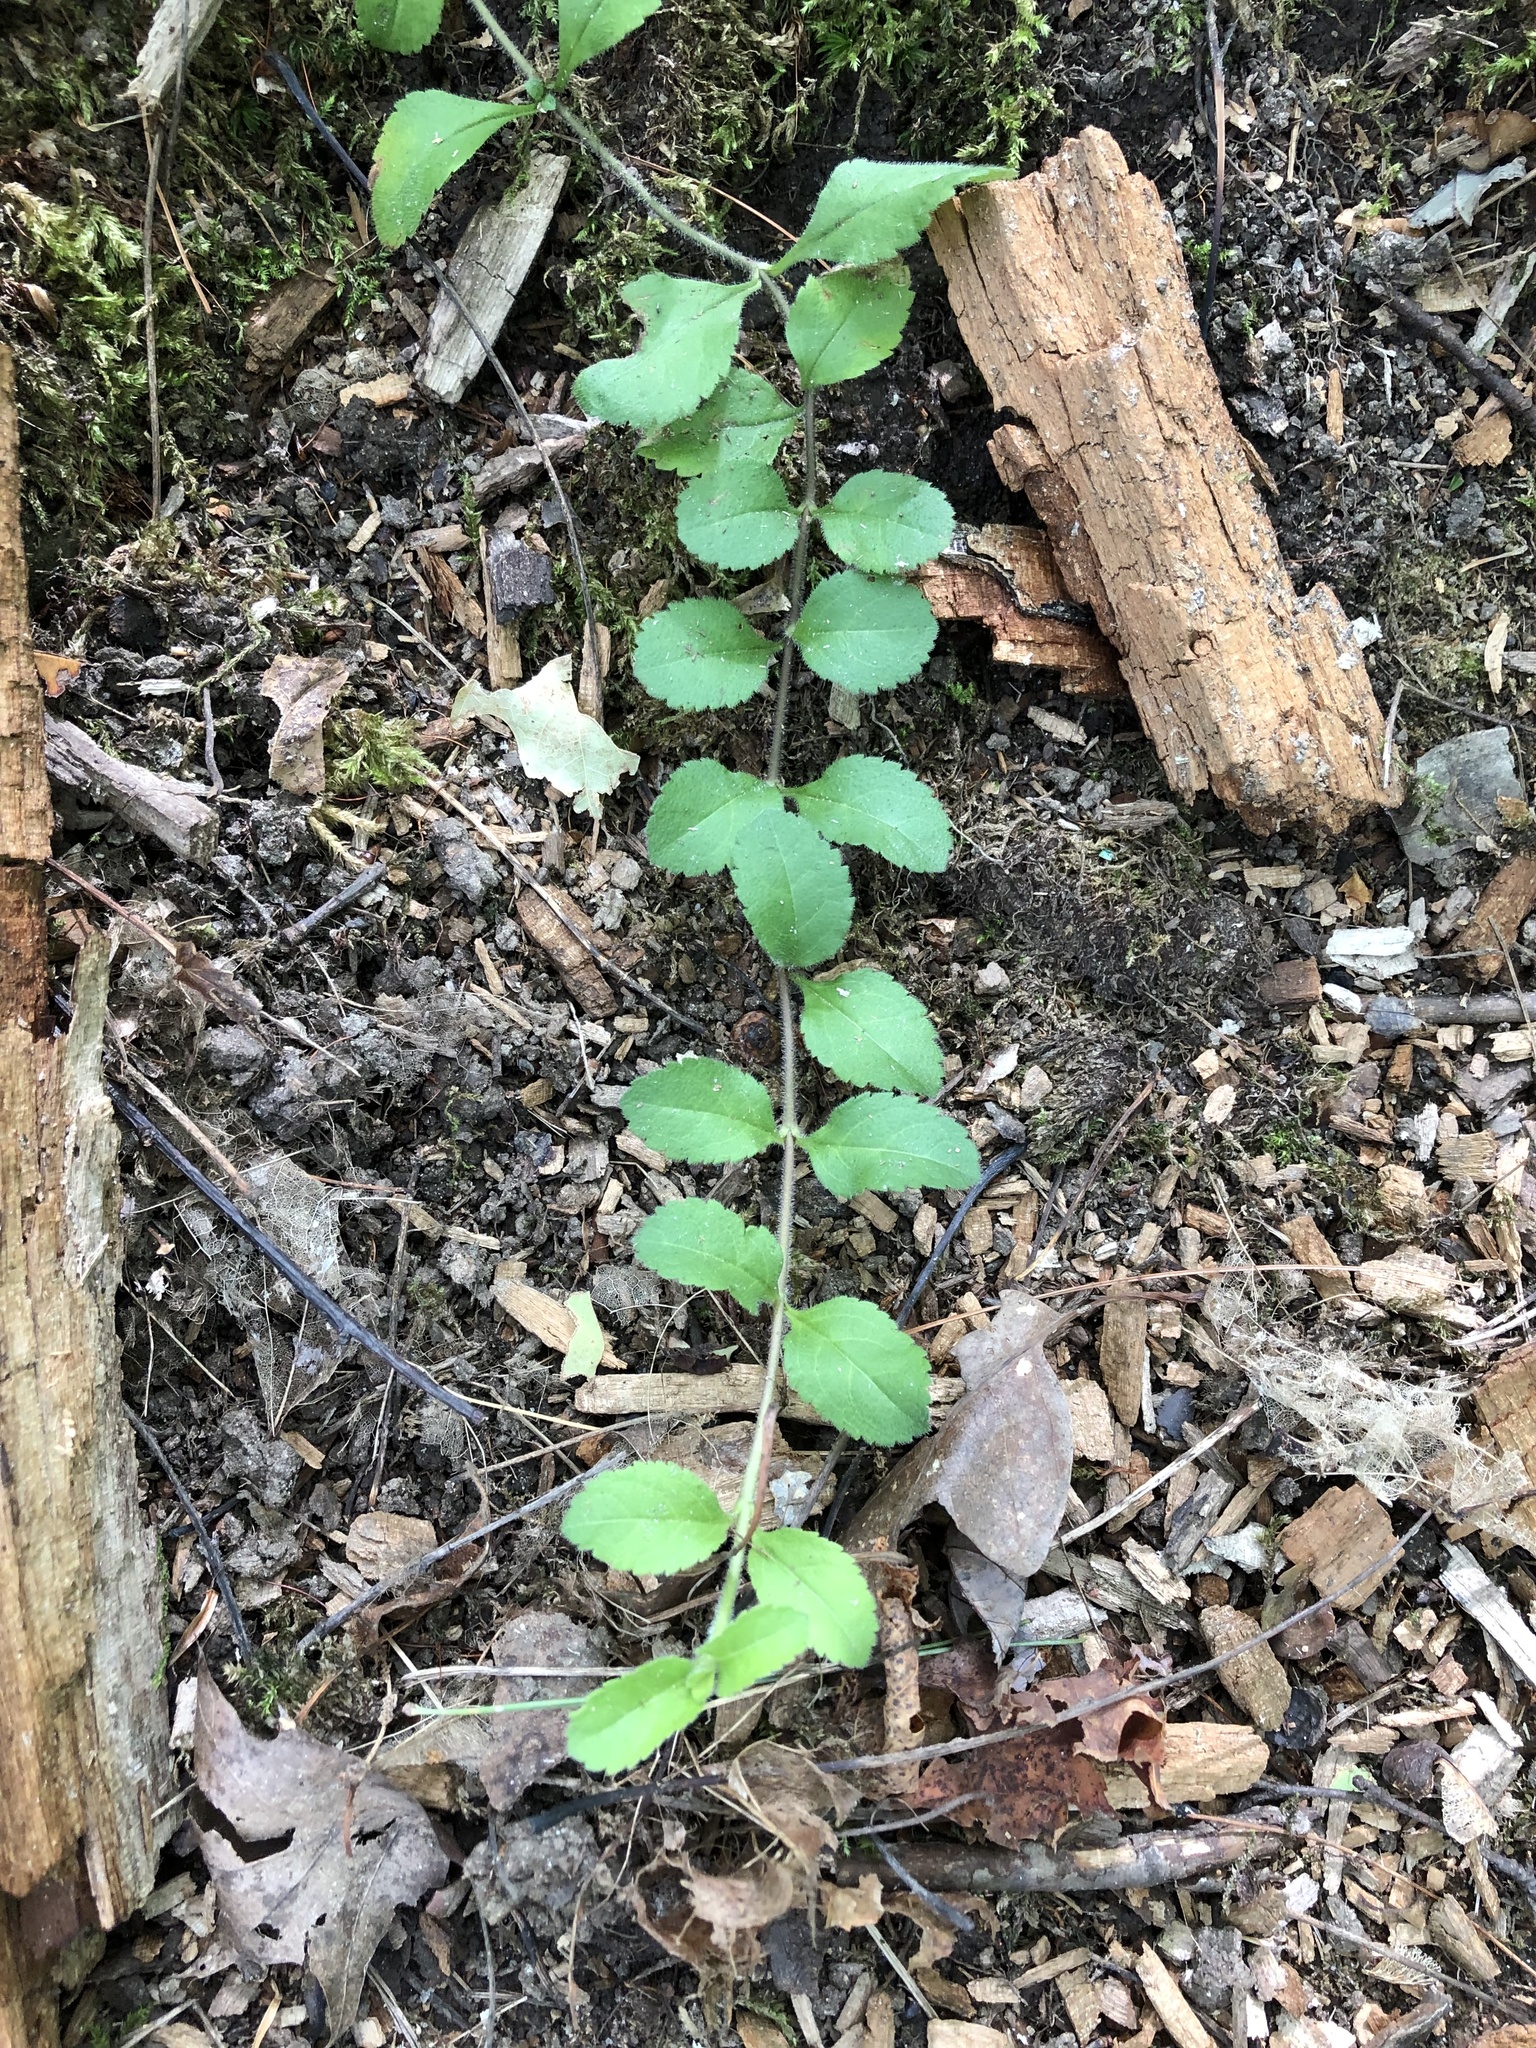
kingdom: Plantae
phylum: Tracheophyta
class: Magnoliopsida
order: Lamiales
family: Plantaginaceae
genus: Veronica
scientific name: Veronica officinalis
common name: Common speedwell
